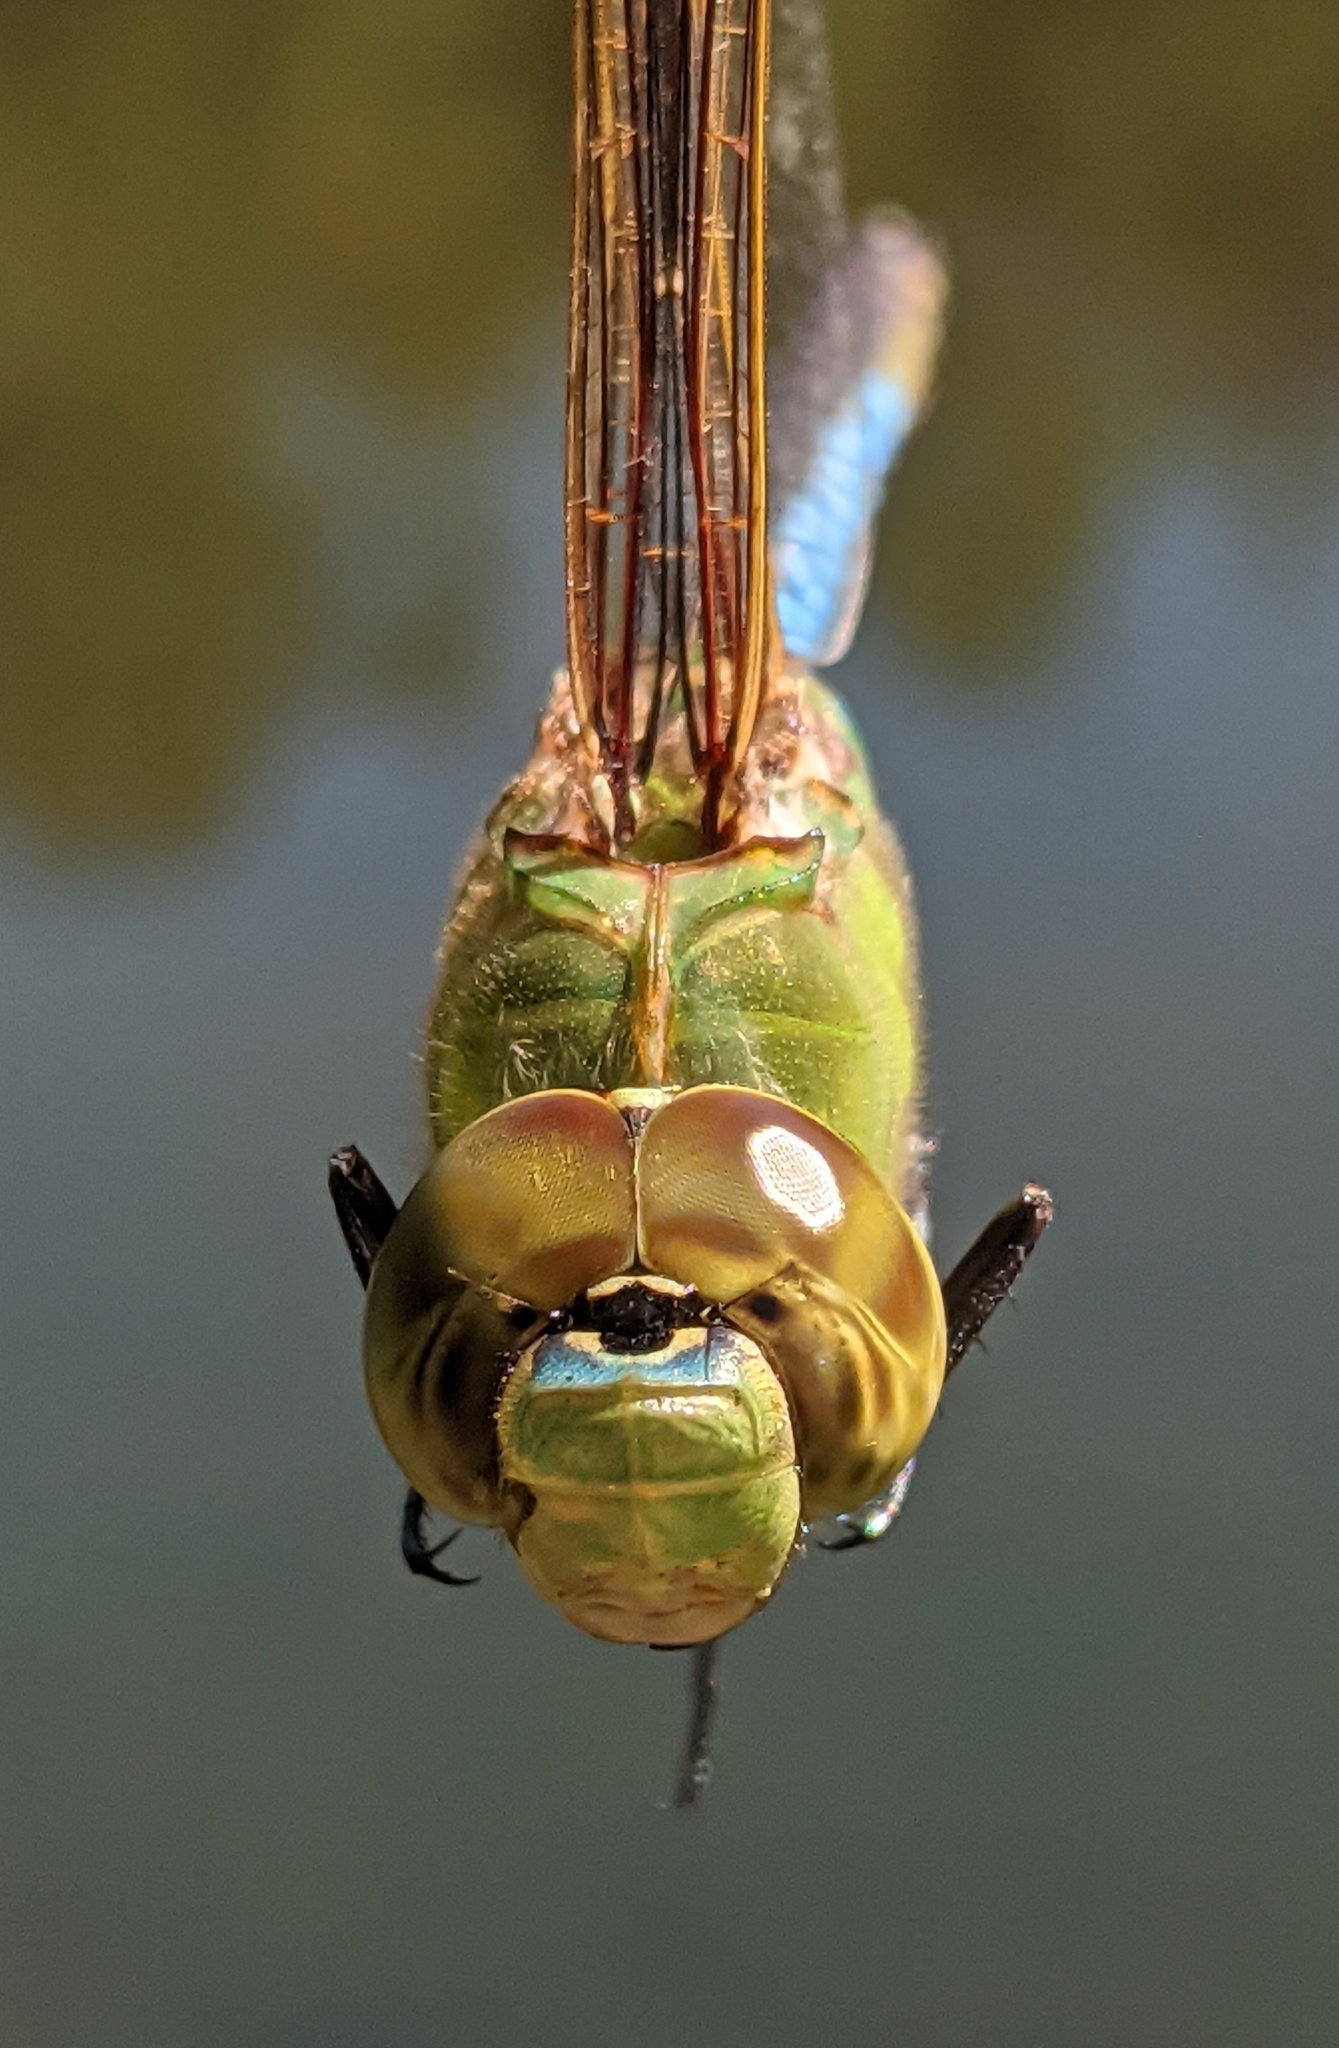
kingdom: Animalia
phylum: Arthropoda
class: Insecta
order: Odonata
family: Aeshnidae
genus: Anax
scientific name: Anax junius
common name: Common green darner
